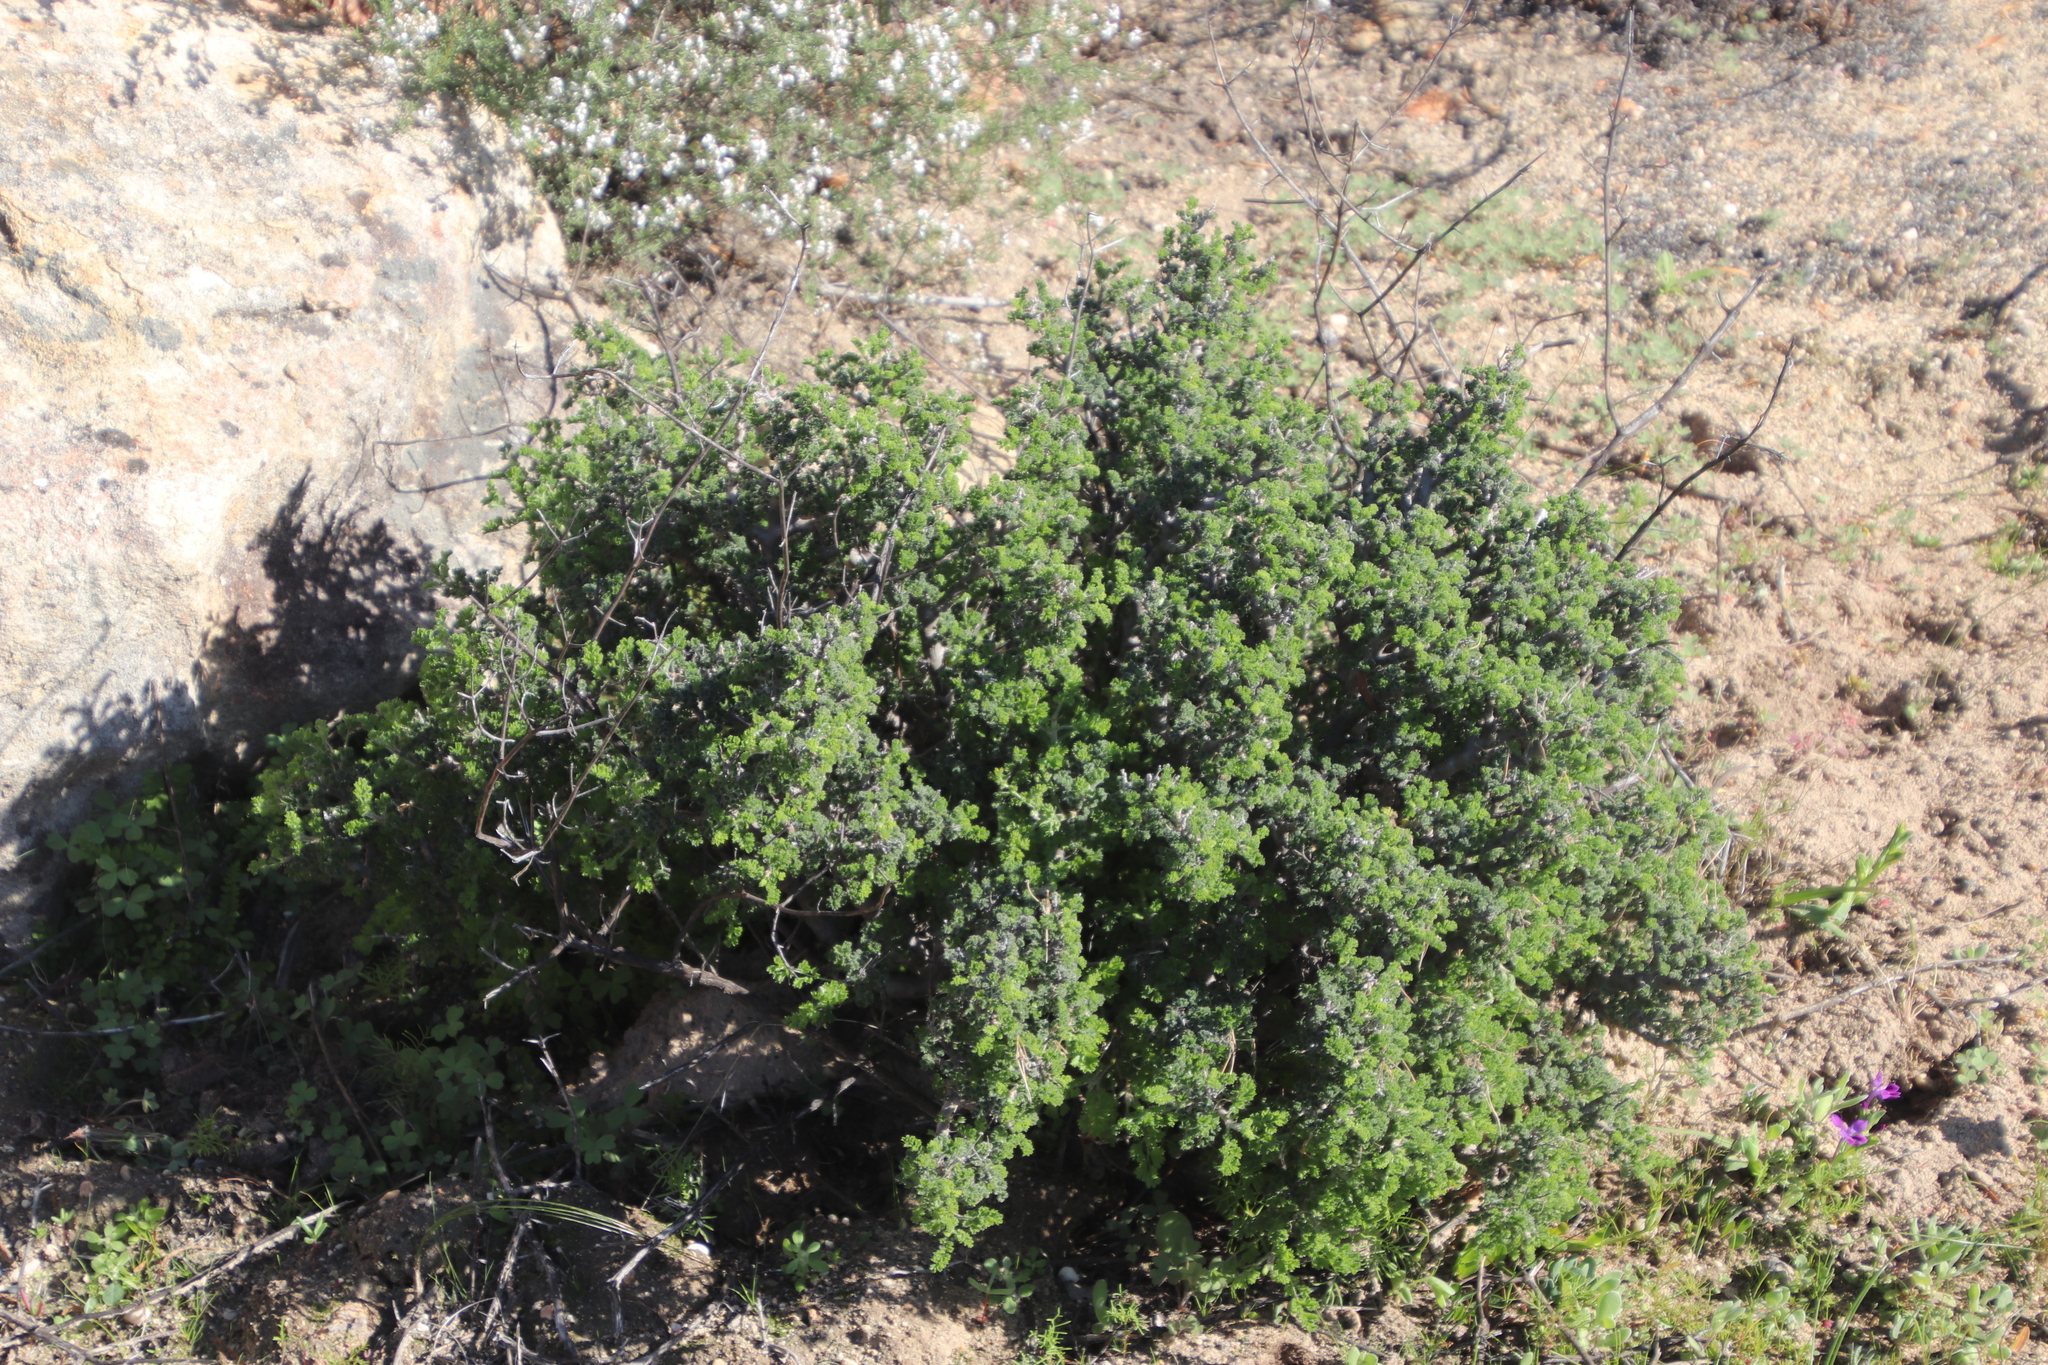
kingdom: Plantae
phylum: Tracheophyta
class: Magnoliopsida
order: Geraniales
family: Geraniaceae
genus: Pelargonium
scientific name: Pelargonium alternans
